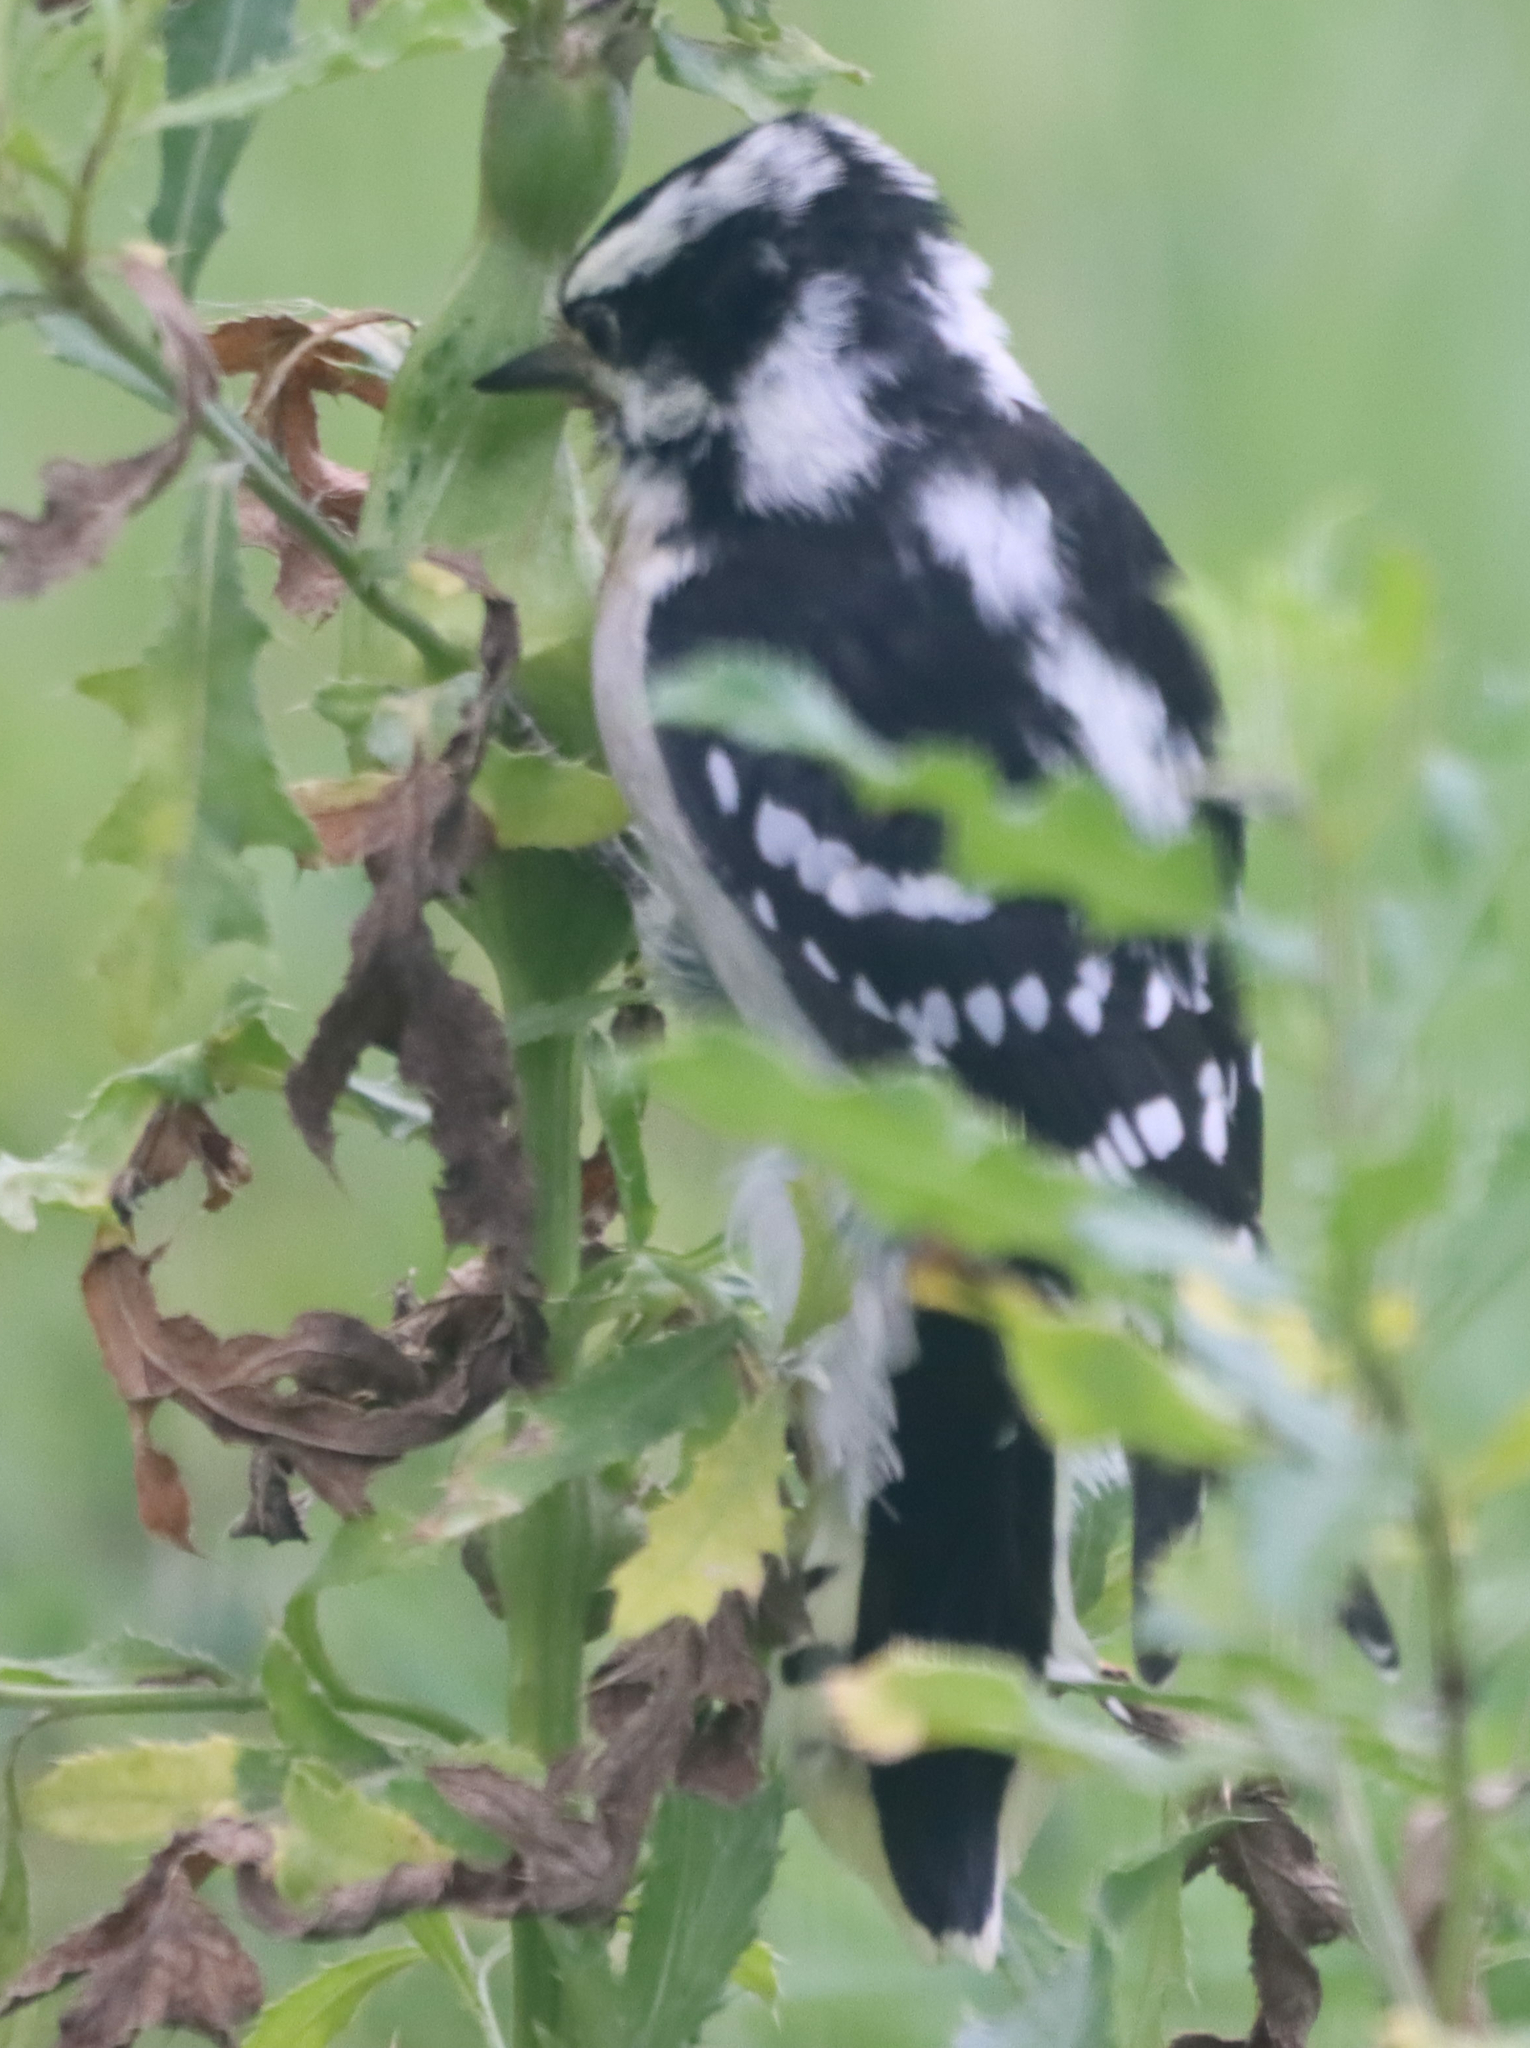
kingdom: Animalia
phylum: Chordata
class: Aves
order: Piciformes
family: Picidae
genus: Dryobates
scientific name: Dryobates pubescens
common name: Downy woodpecker
